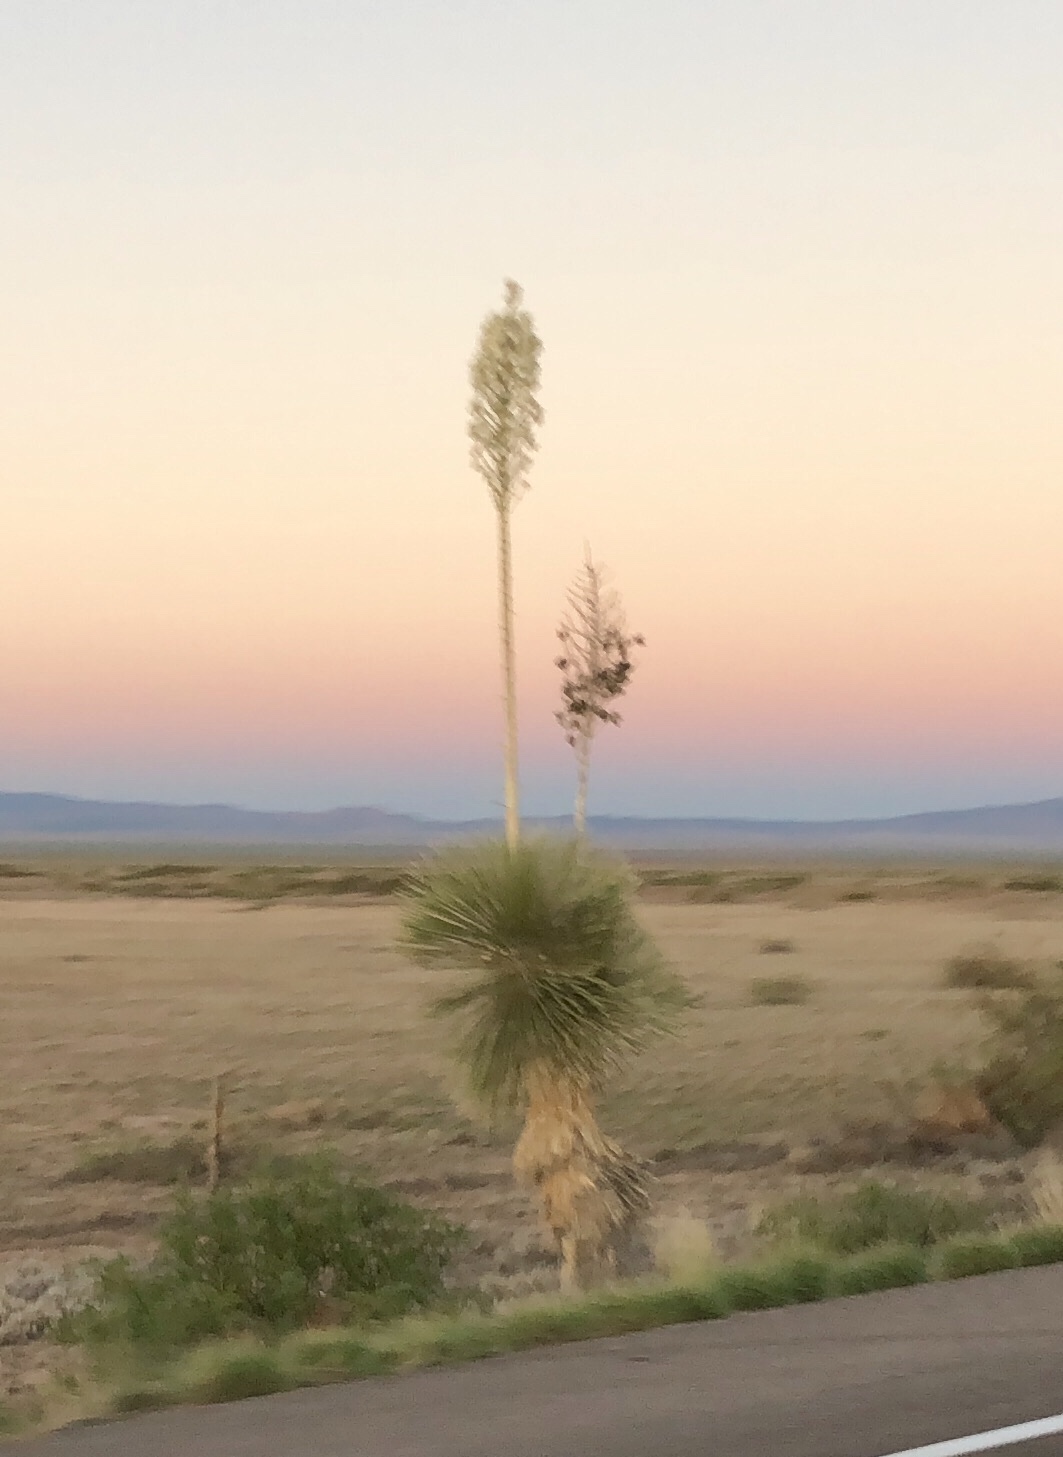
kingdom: Plantae
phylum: Tracheophyta
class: Liliopsida
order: Asparagales
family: Asparagaceae
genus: Yucca
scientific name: Yucca elata
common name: Palmella
